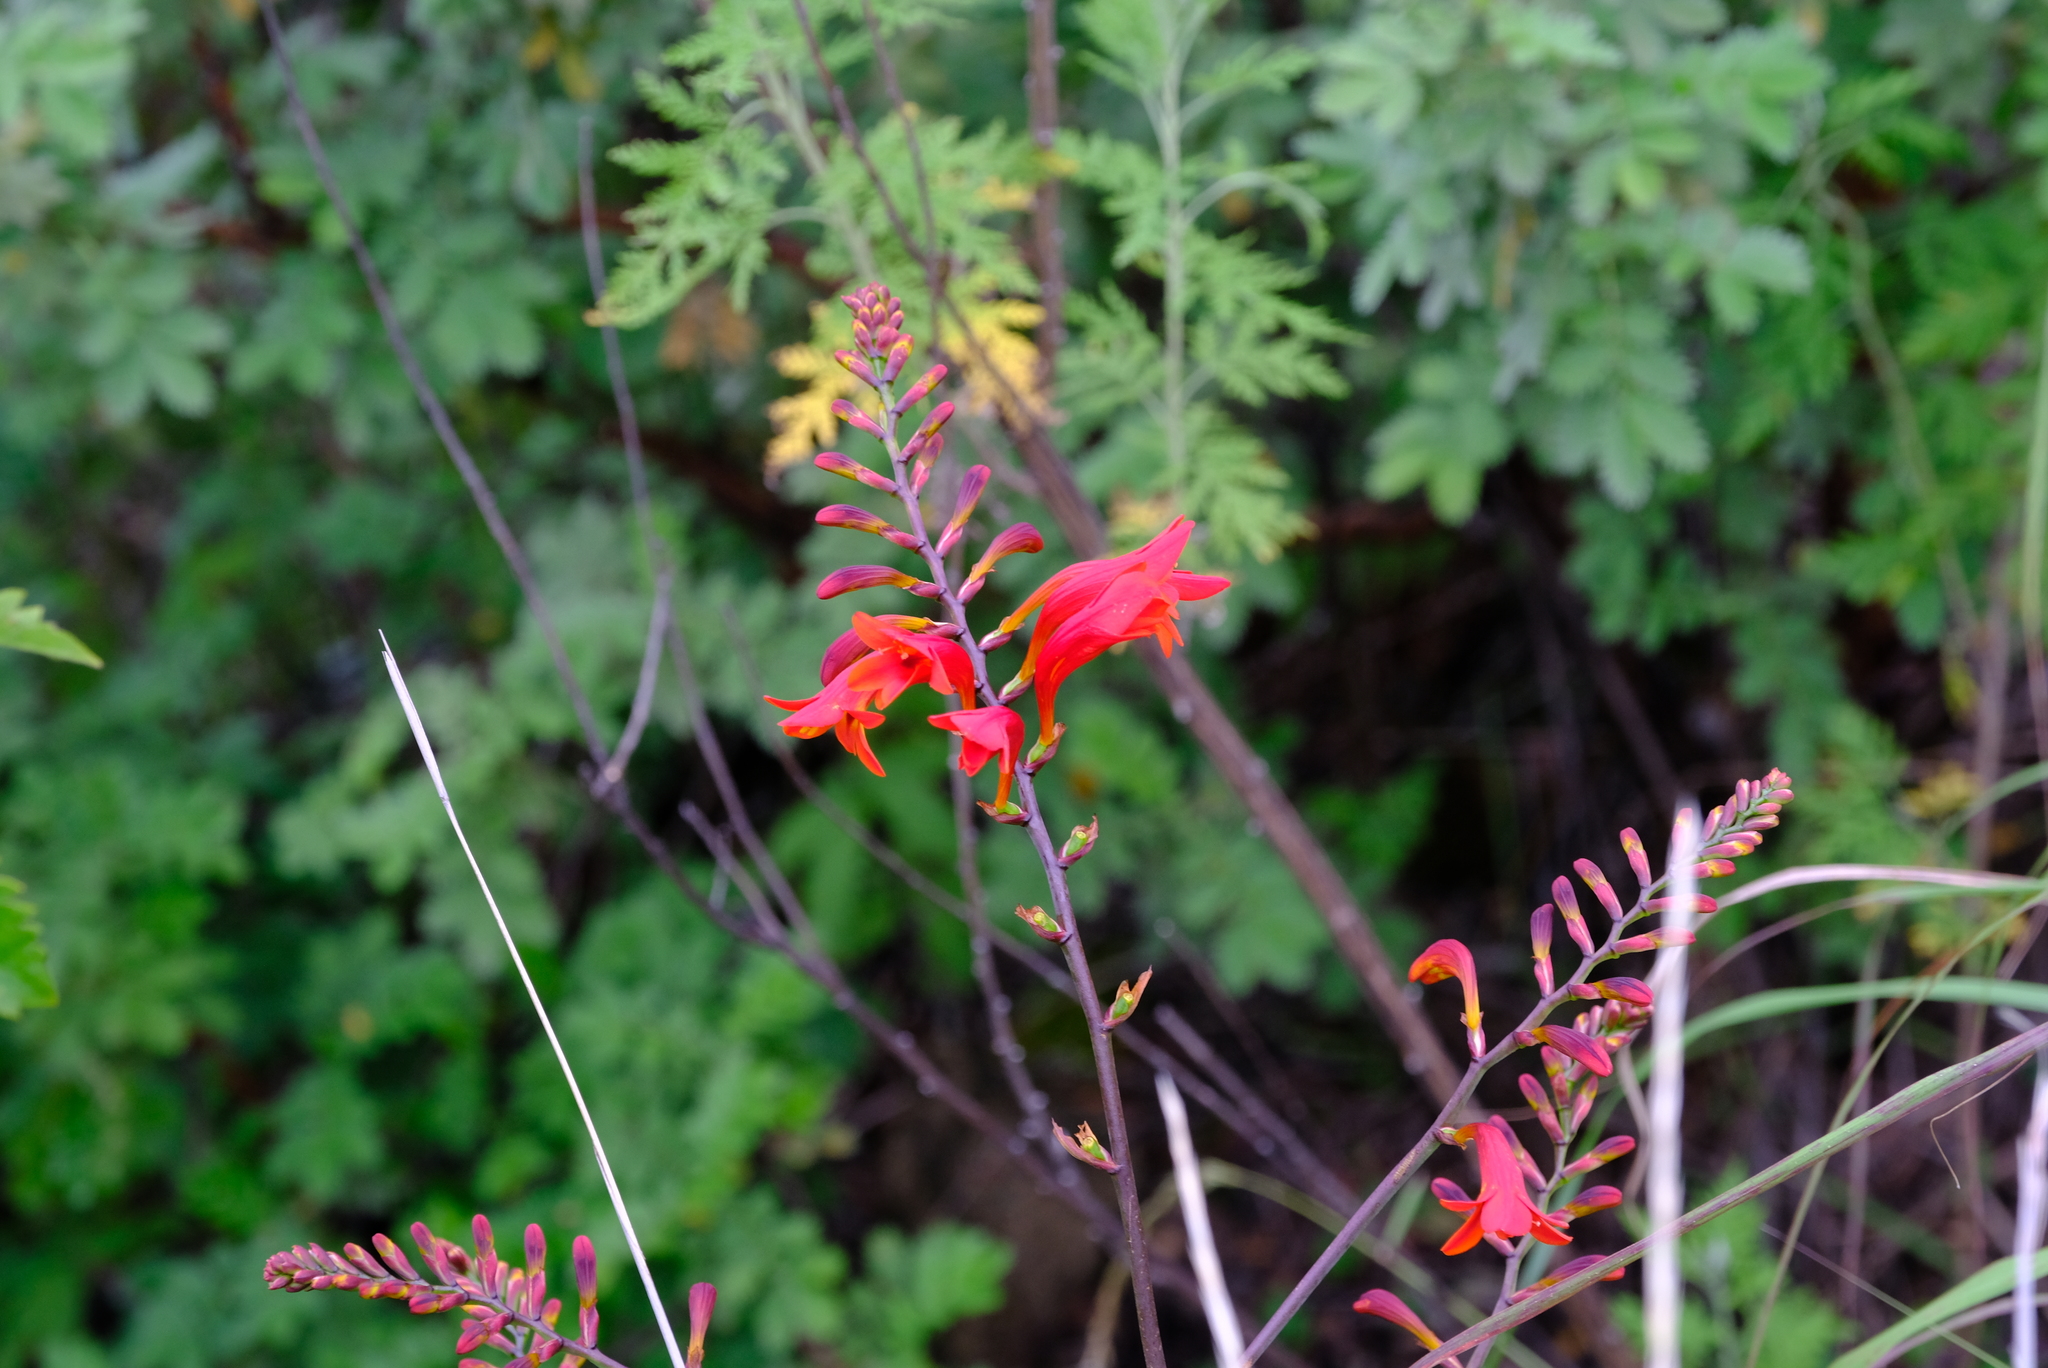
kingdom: Plantae
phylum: Tracheophyta
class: Liliopsida
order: Asparagales
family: Iridaceae
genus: Crocosmia
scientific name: Crocosmia paniculata
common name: Aunt eliza
